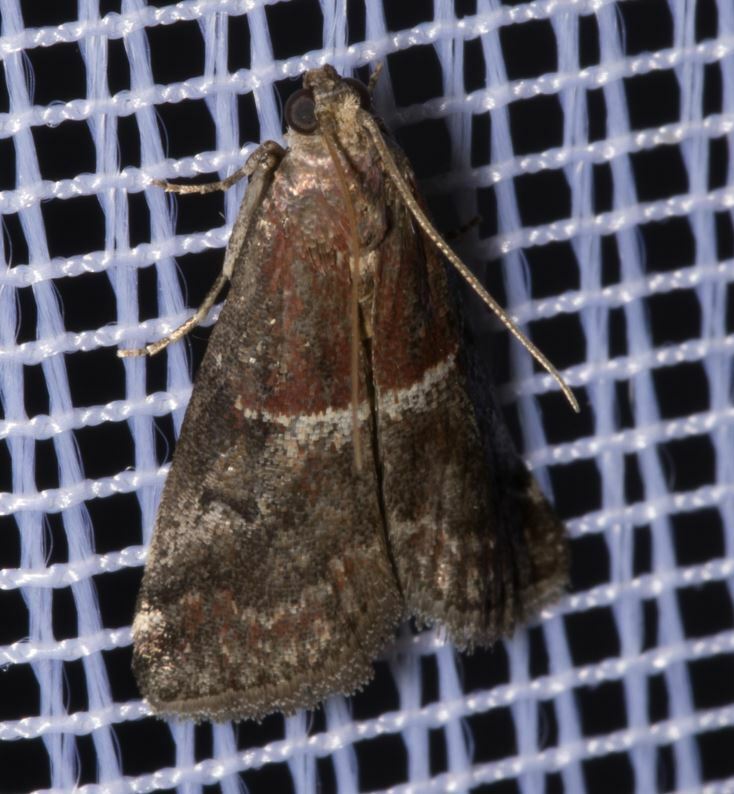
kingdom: Animalia
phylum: Arthropoda
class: Insecta
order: Lepidoptera
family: Pyralidae
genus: Acrobasis
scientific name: Acrobasis marmorea
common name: Marbled knot-horn
